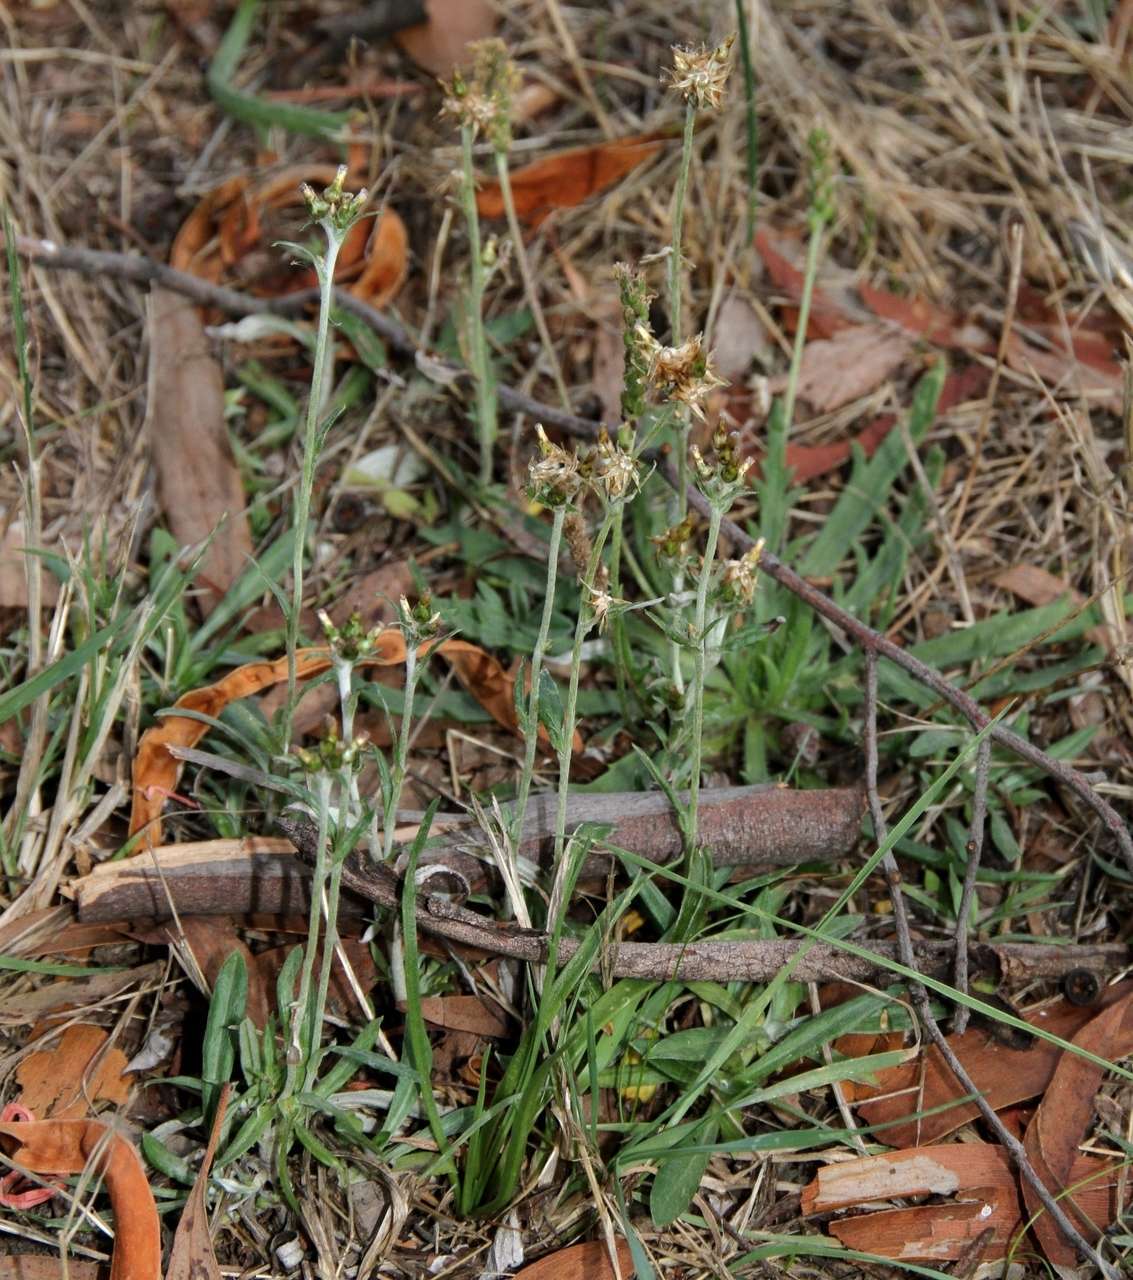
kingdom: Plantae
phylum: Tracheophyta
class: Magnoliopsida
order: Asterales
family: Asteraceae
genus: Euchiton
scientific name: Euchiton japonicus
